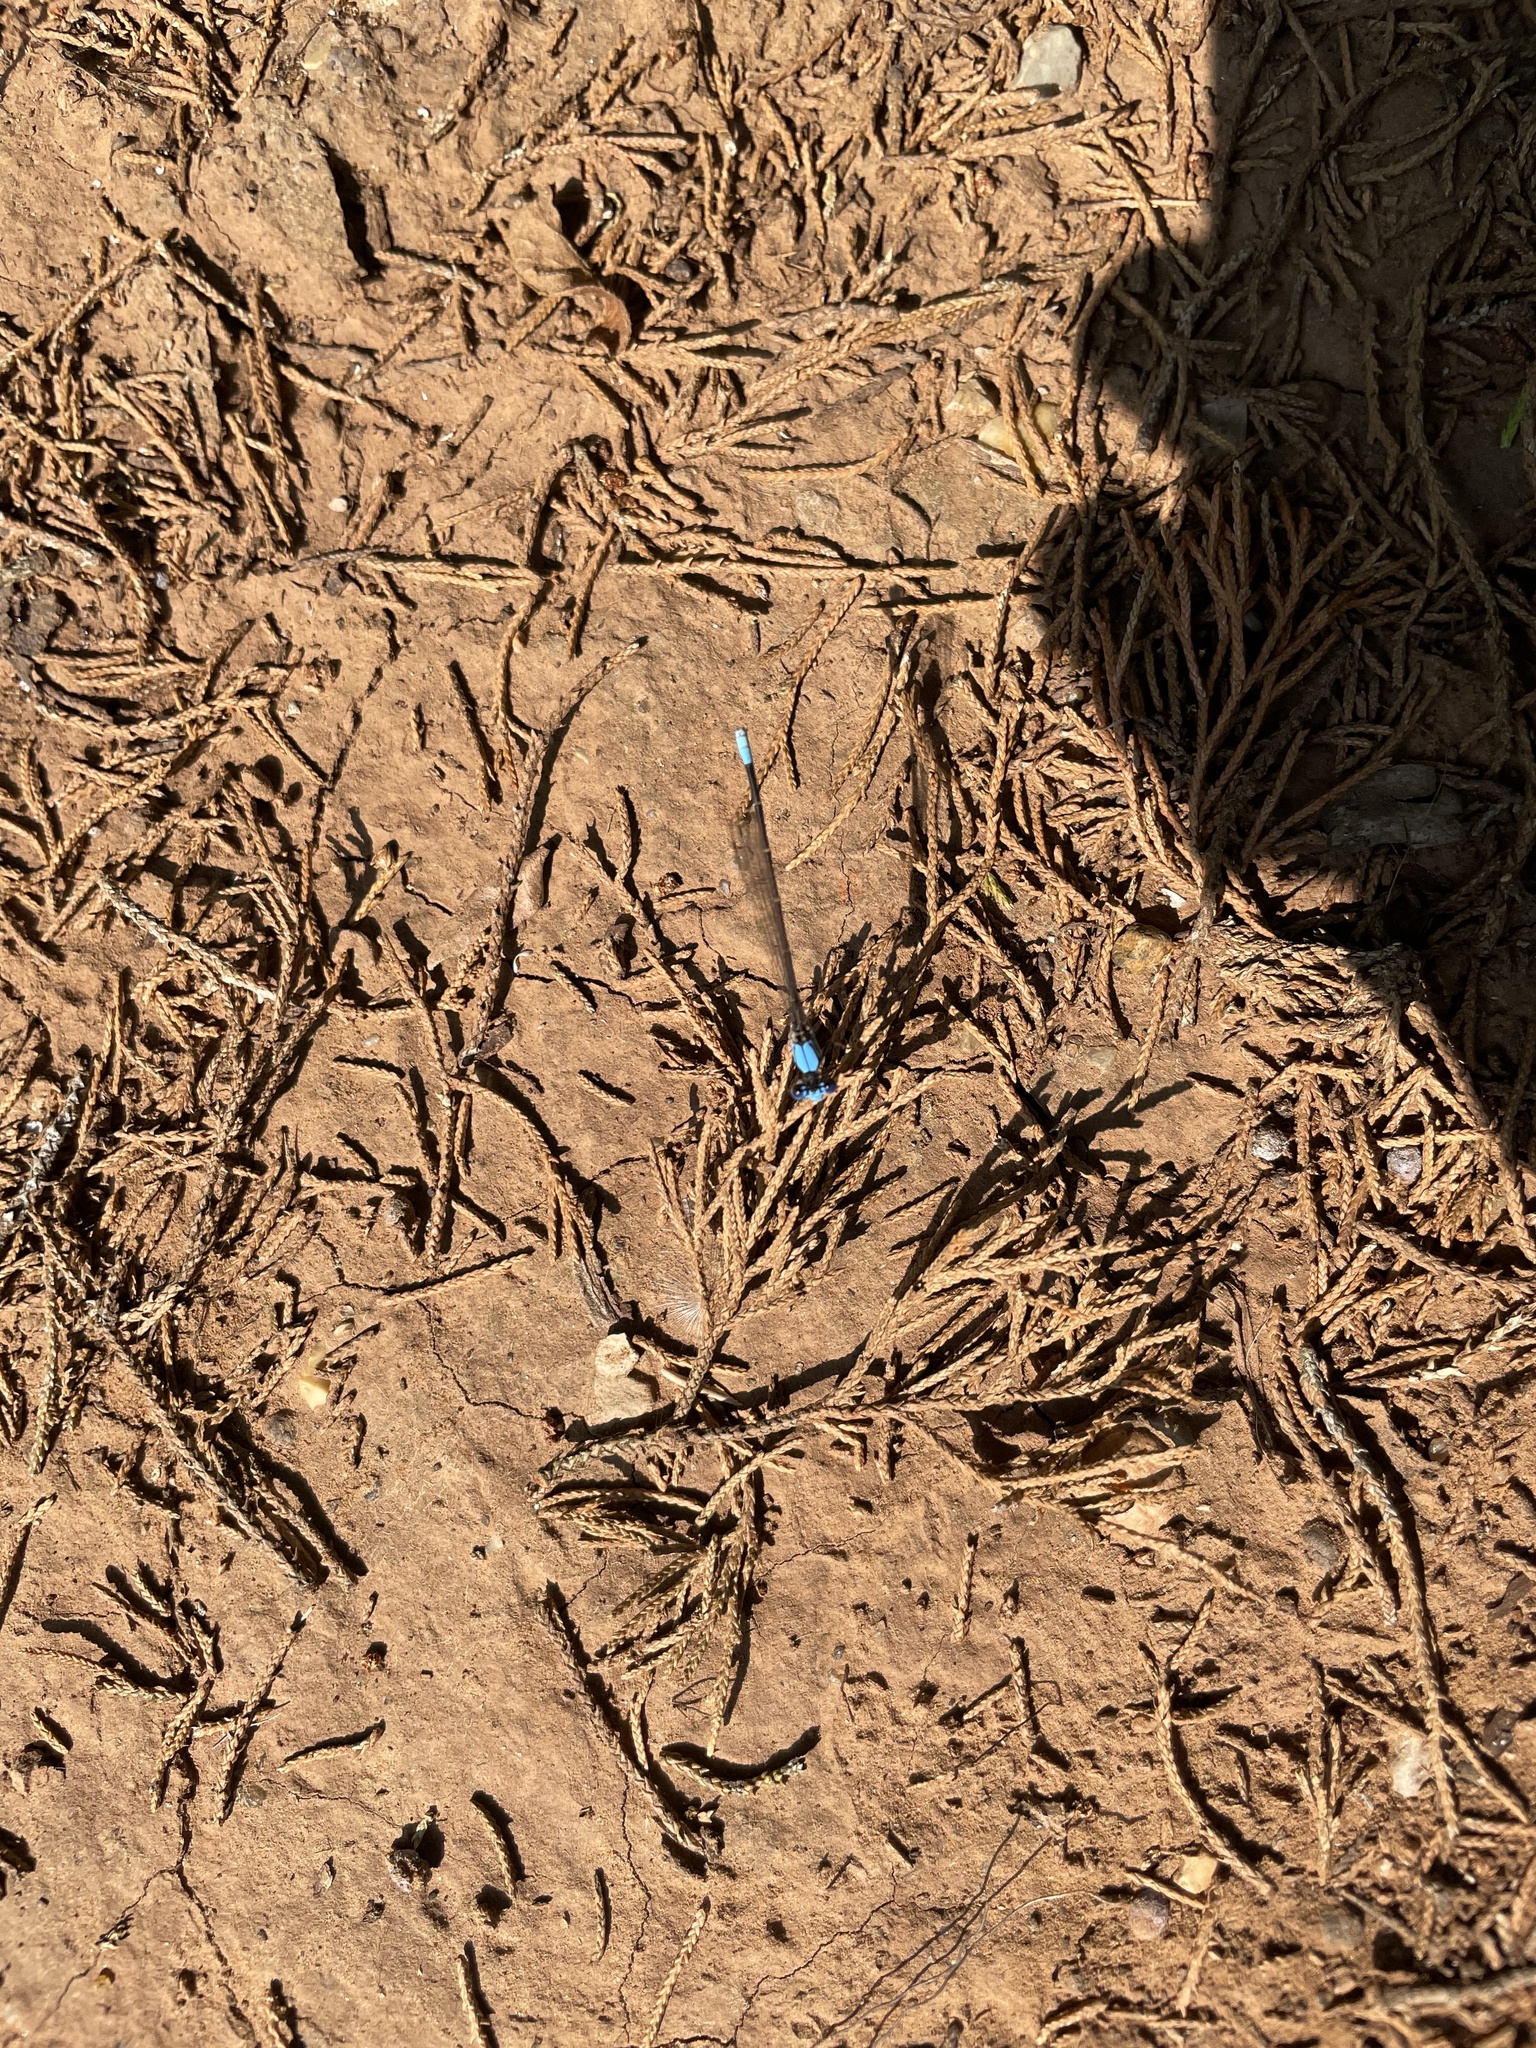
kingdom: Animalia
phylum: Arthropoda
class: Insecta
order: Odonata
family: Coenagrionidae
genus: Argia
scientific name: Argia apicalis
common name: Blue-fronted dancer
